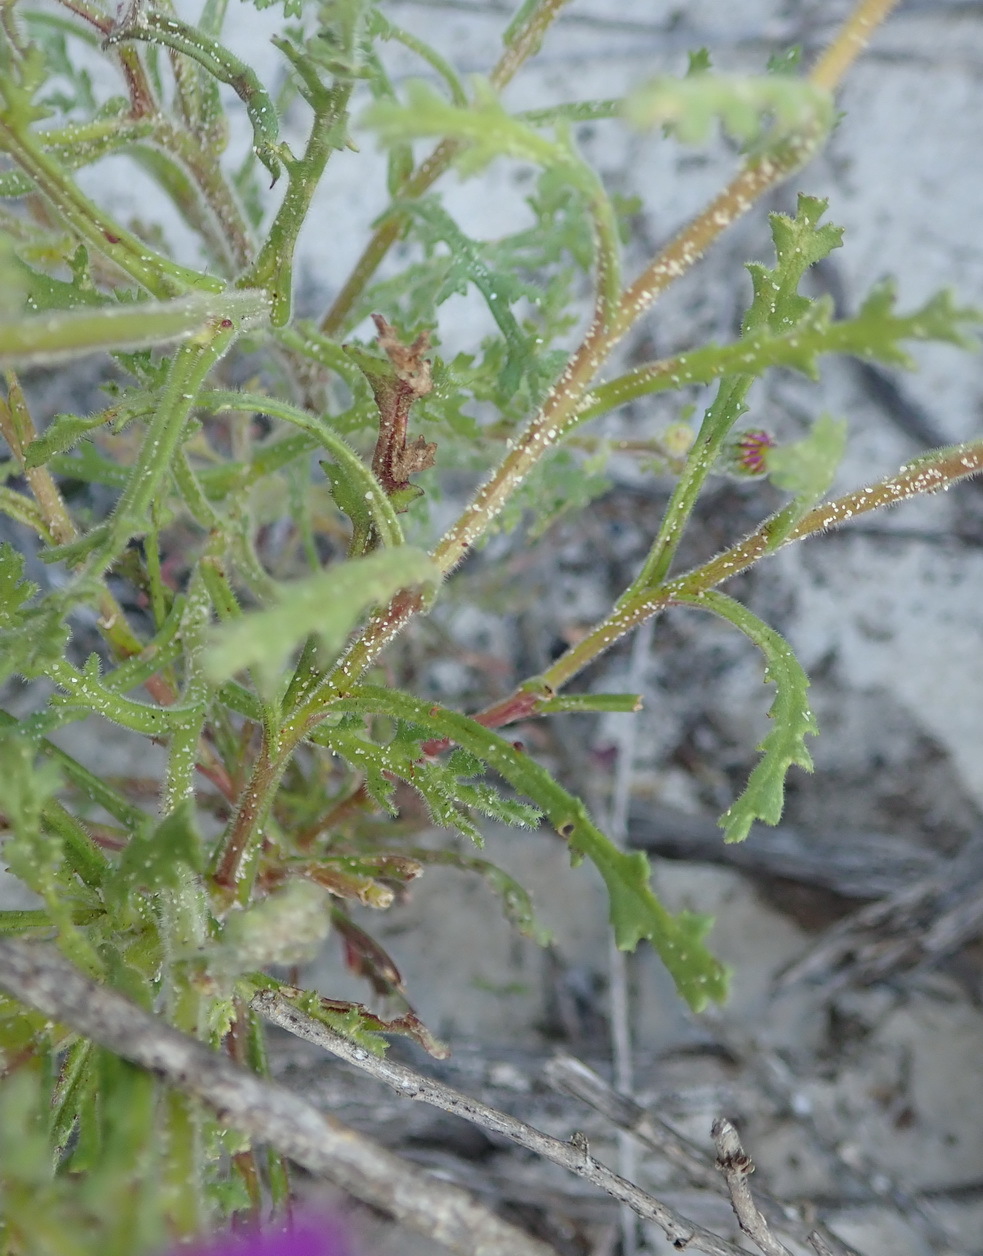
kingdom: Plantae
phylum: Tracheophyta
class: Magnoliopsida
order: Asterales
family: Asteraceae
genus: Senecio
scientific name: Senecio arenarius
